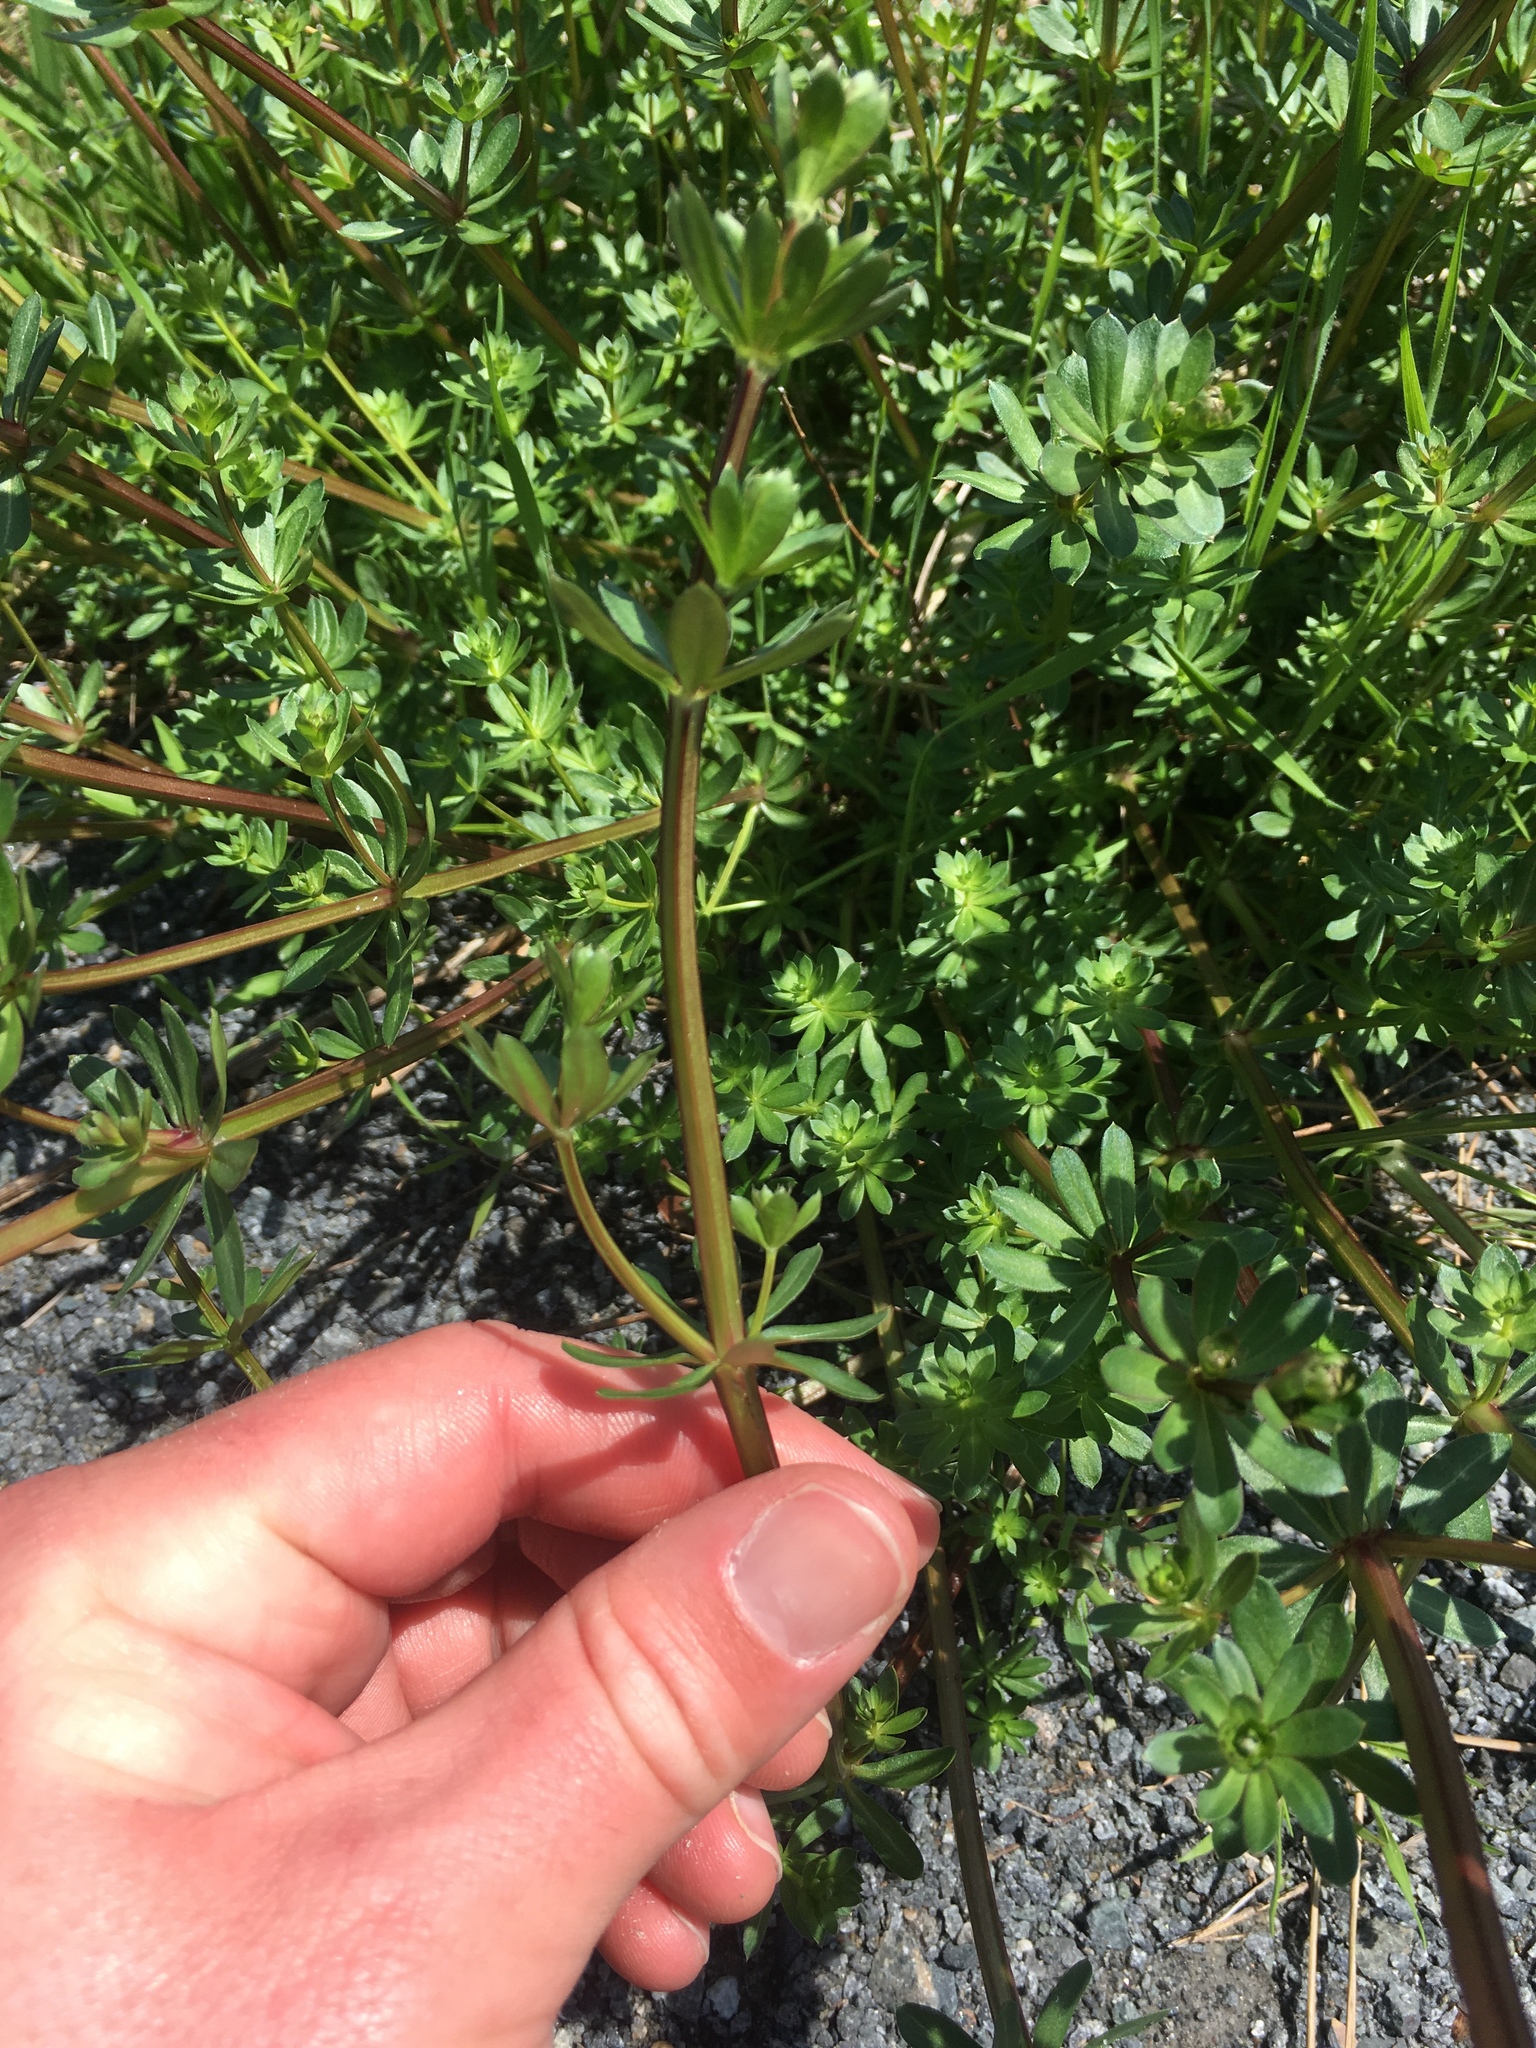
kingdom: Plantae
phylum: Tracheophyta
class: Magnoliopsida
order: Gentianales
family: Rubiaceae
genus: Galium
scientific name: Galium mollugo
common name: Hedge bedstraw
